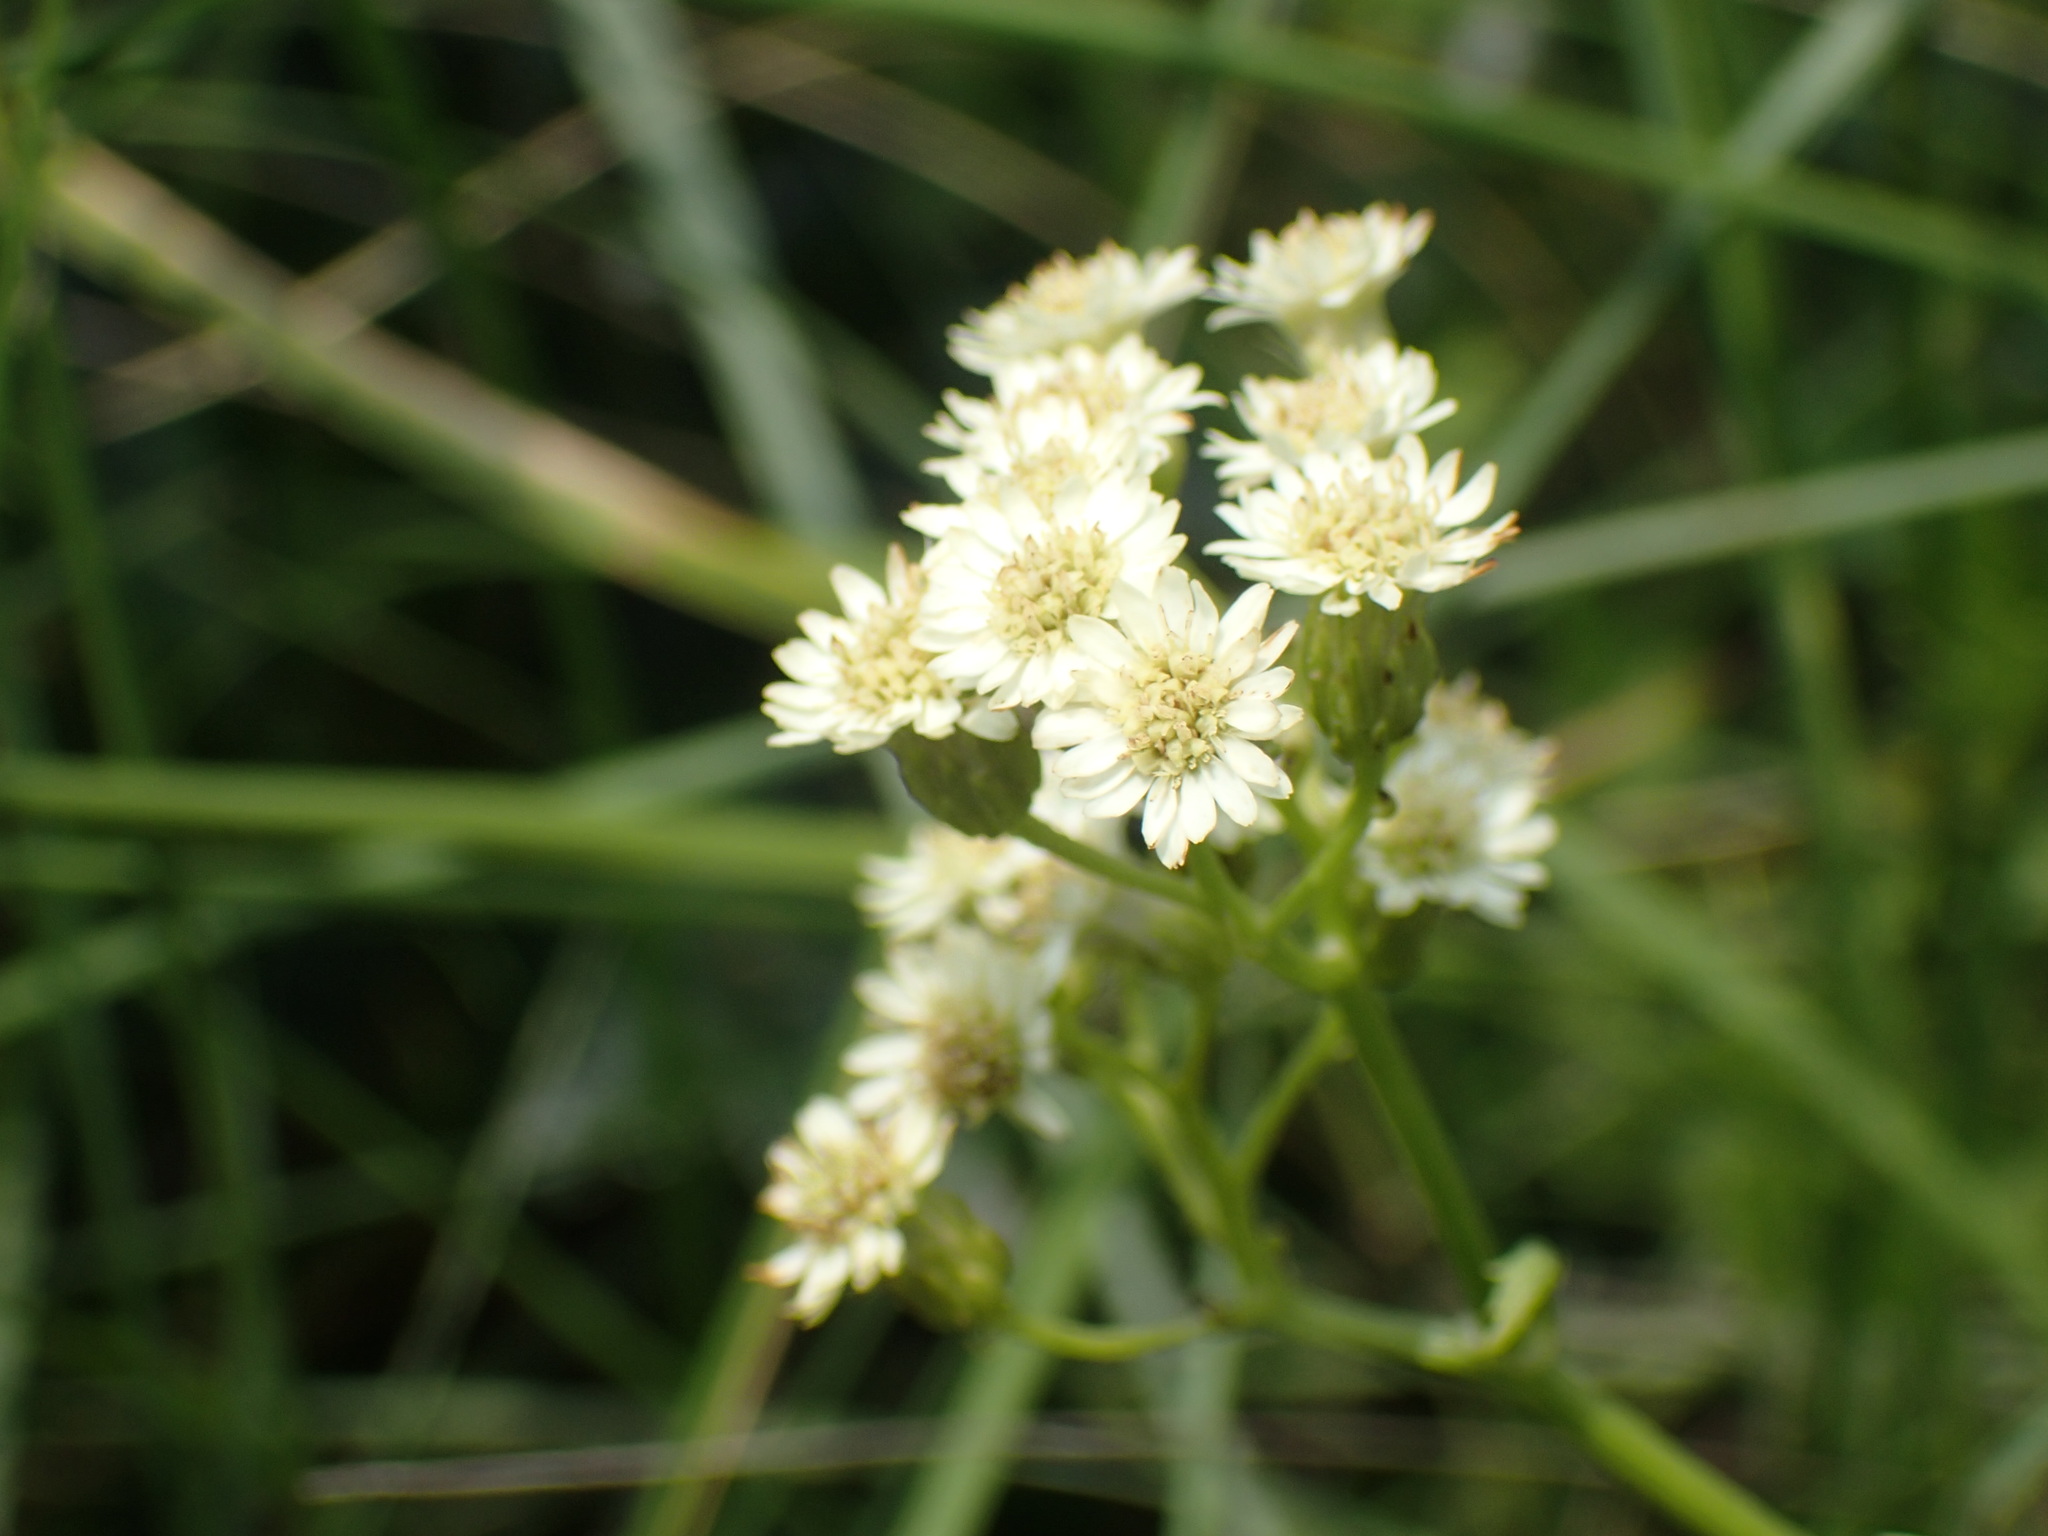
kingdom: Plantae
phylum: Tracheophyta
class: Magnoliopsida
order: Asterales
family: Asteraceae
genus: Microglossa
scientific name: Microglossa mespilifolia
